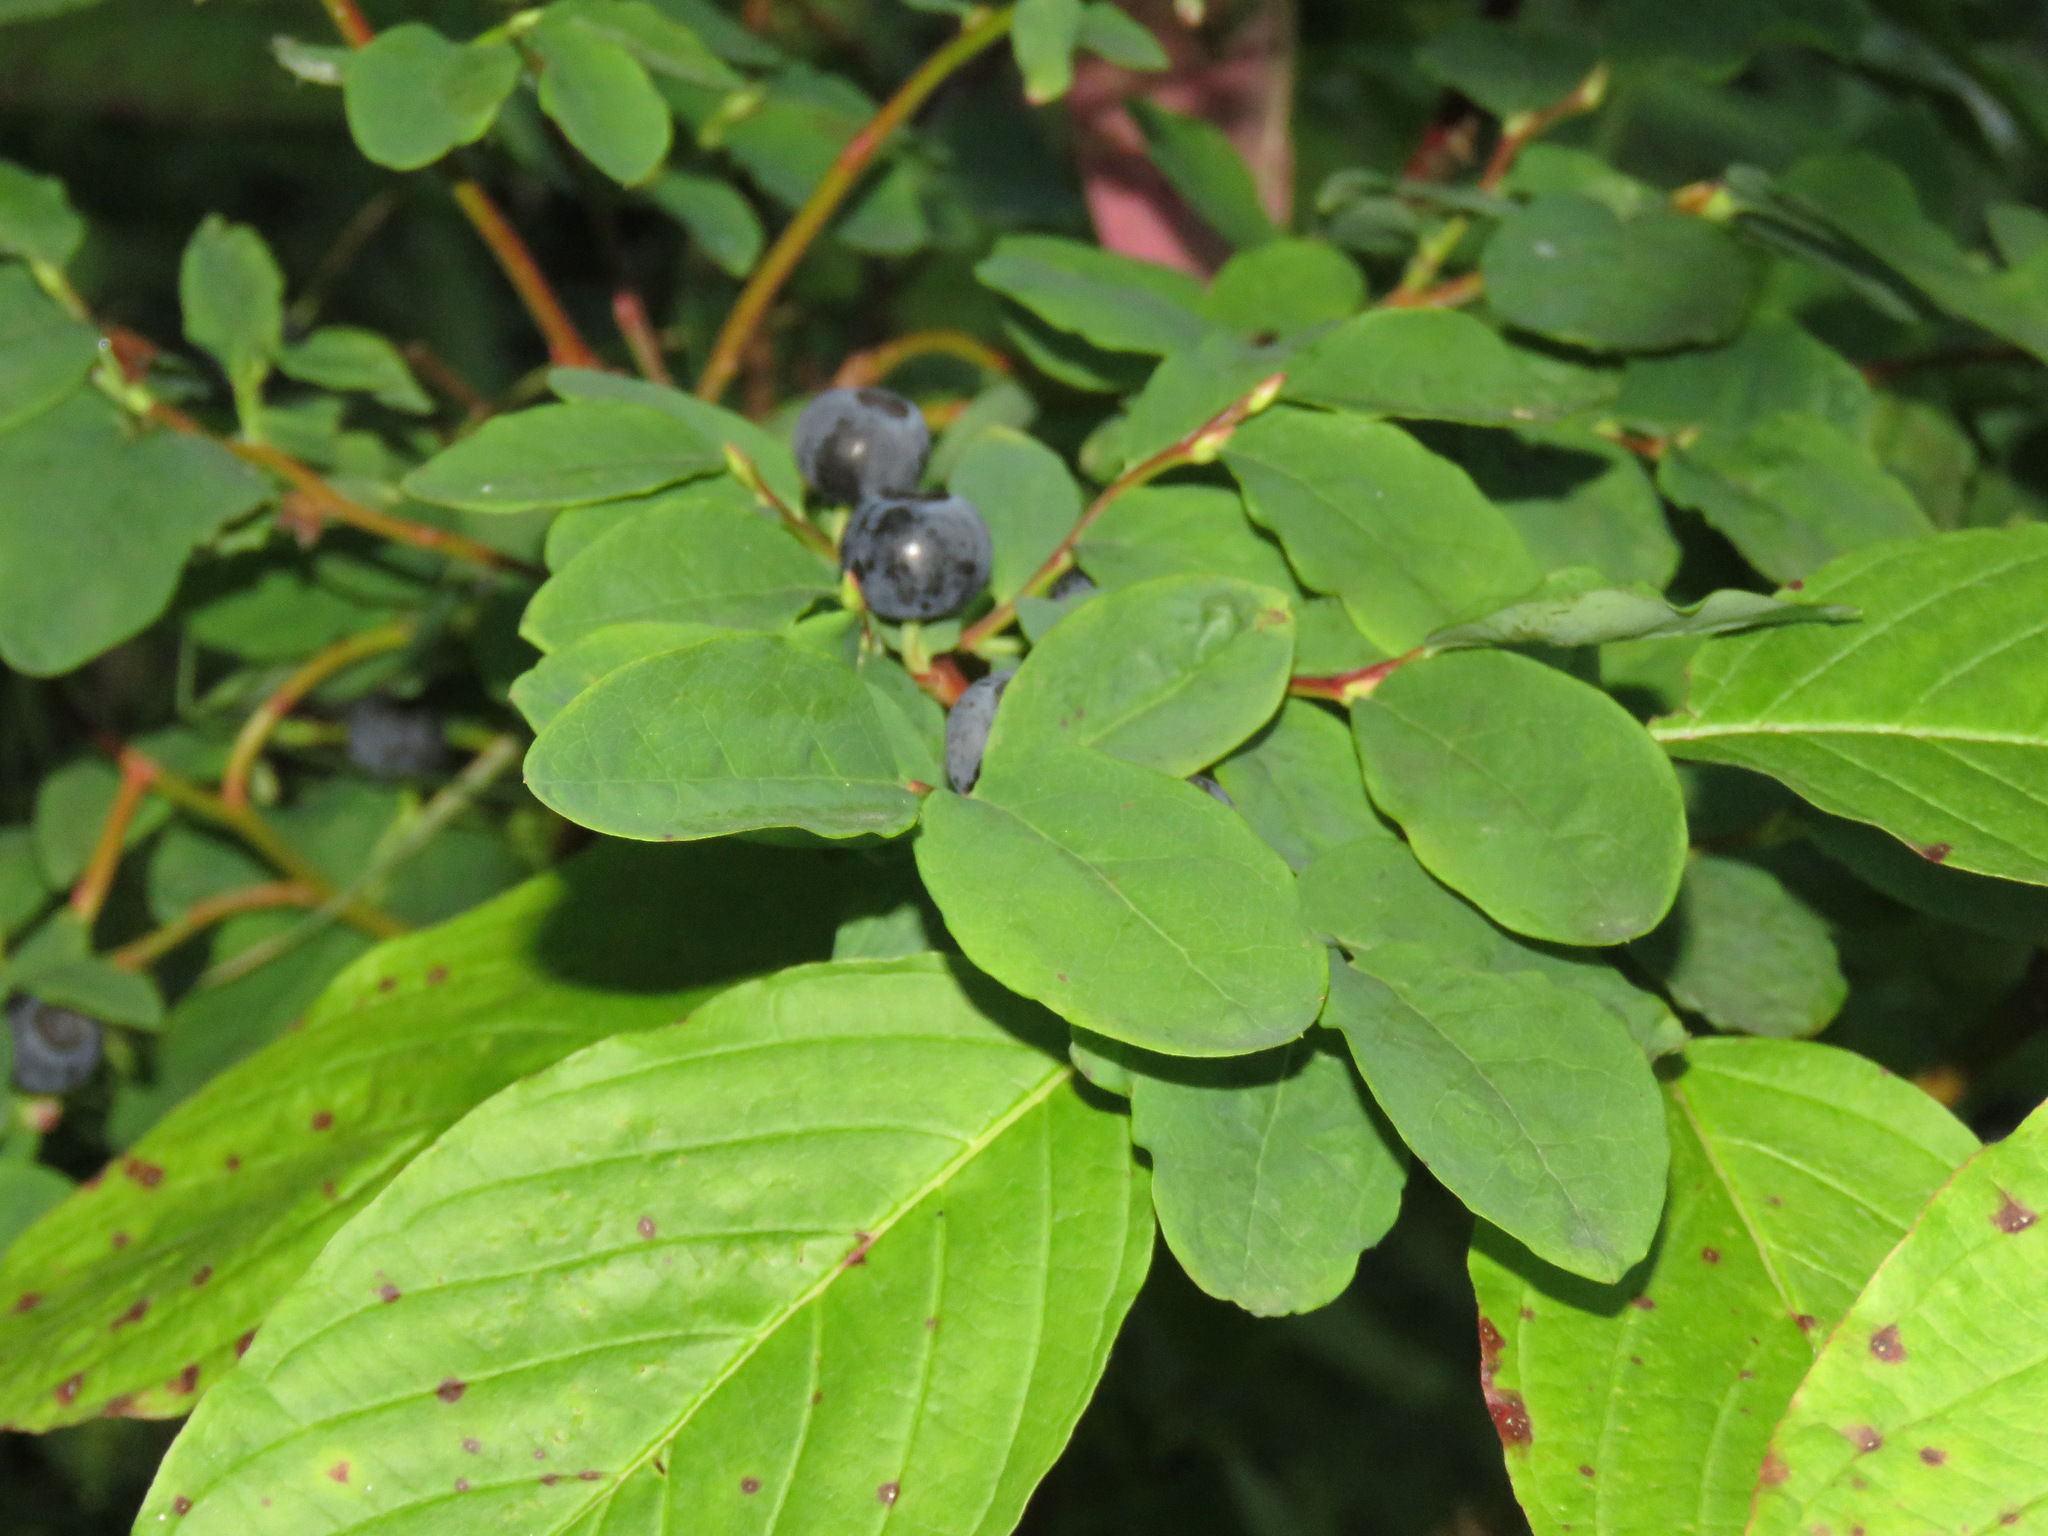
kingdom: Plantae
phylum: Tracheophyta
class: Magnoliopsida
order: Ericales
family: Ericaceae
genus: Vaccinium
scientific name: Vaccinium ovalifolium
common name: Early blueberry
